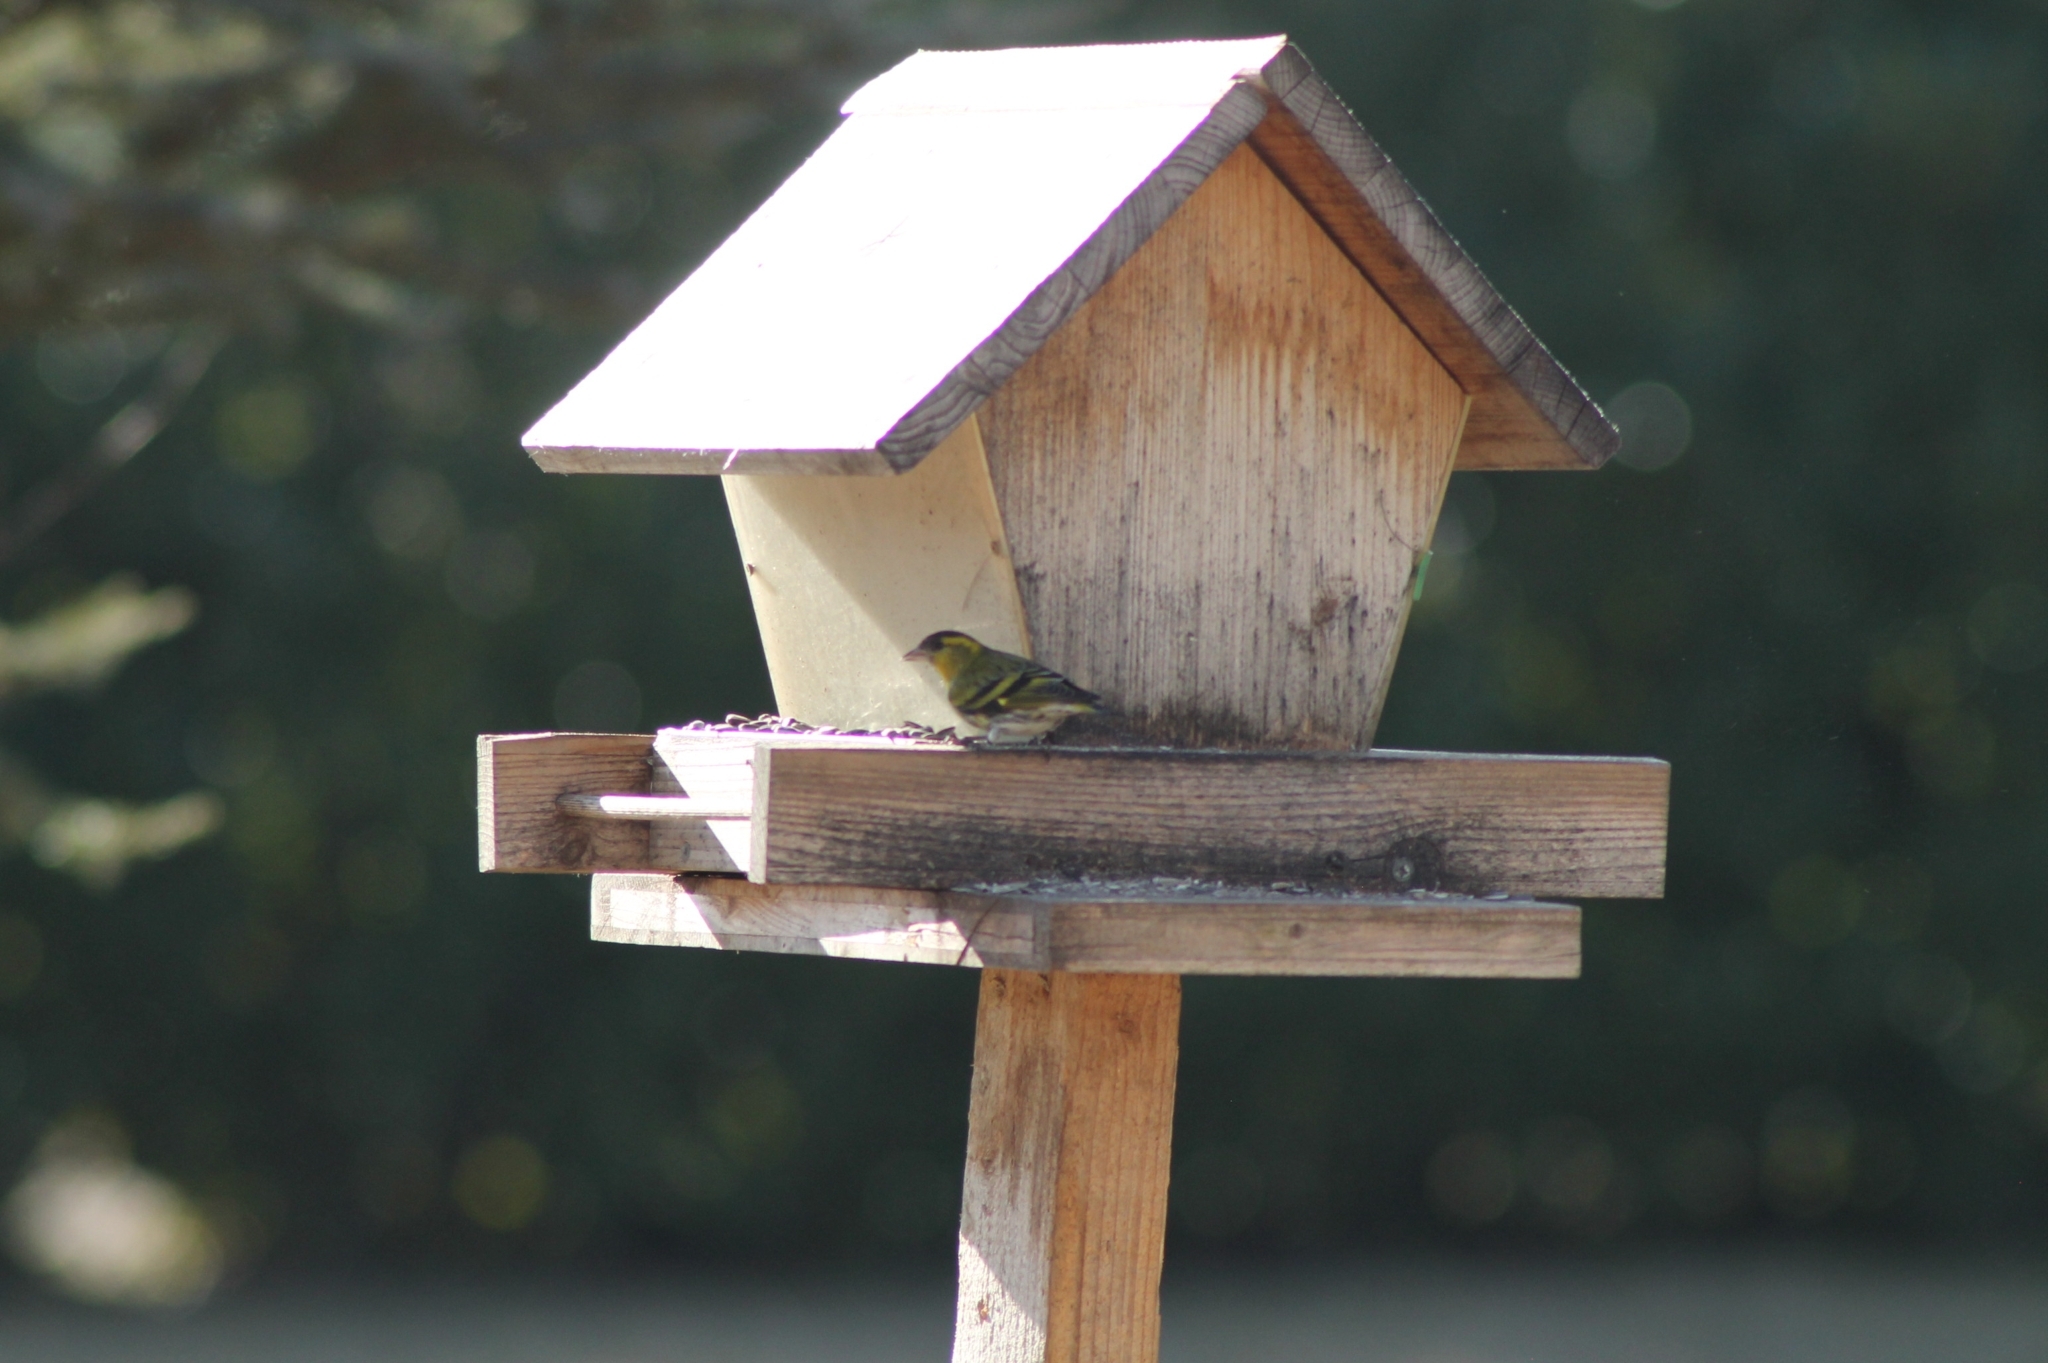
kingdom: Animalia
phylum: Chordata
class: Aves
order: Passeriformes
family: Fringillidae
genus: Spinus
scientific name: Spinus spinus
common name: Eurasian siskin
